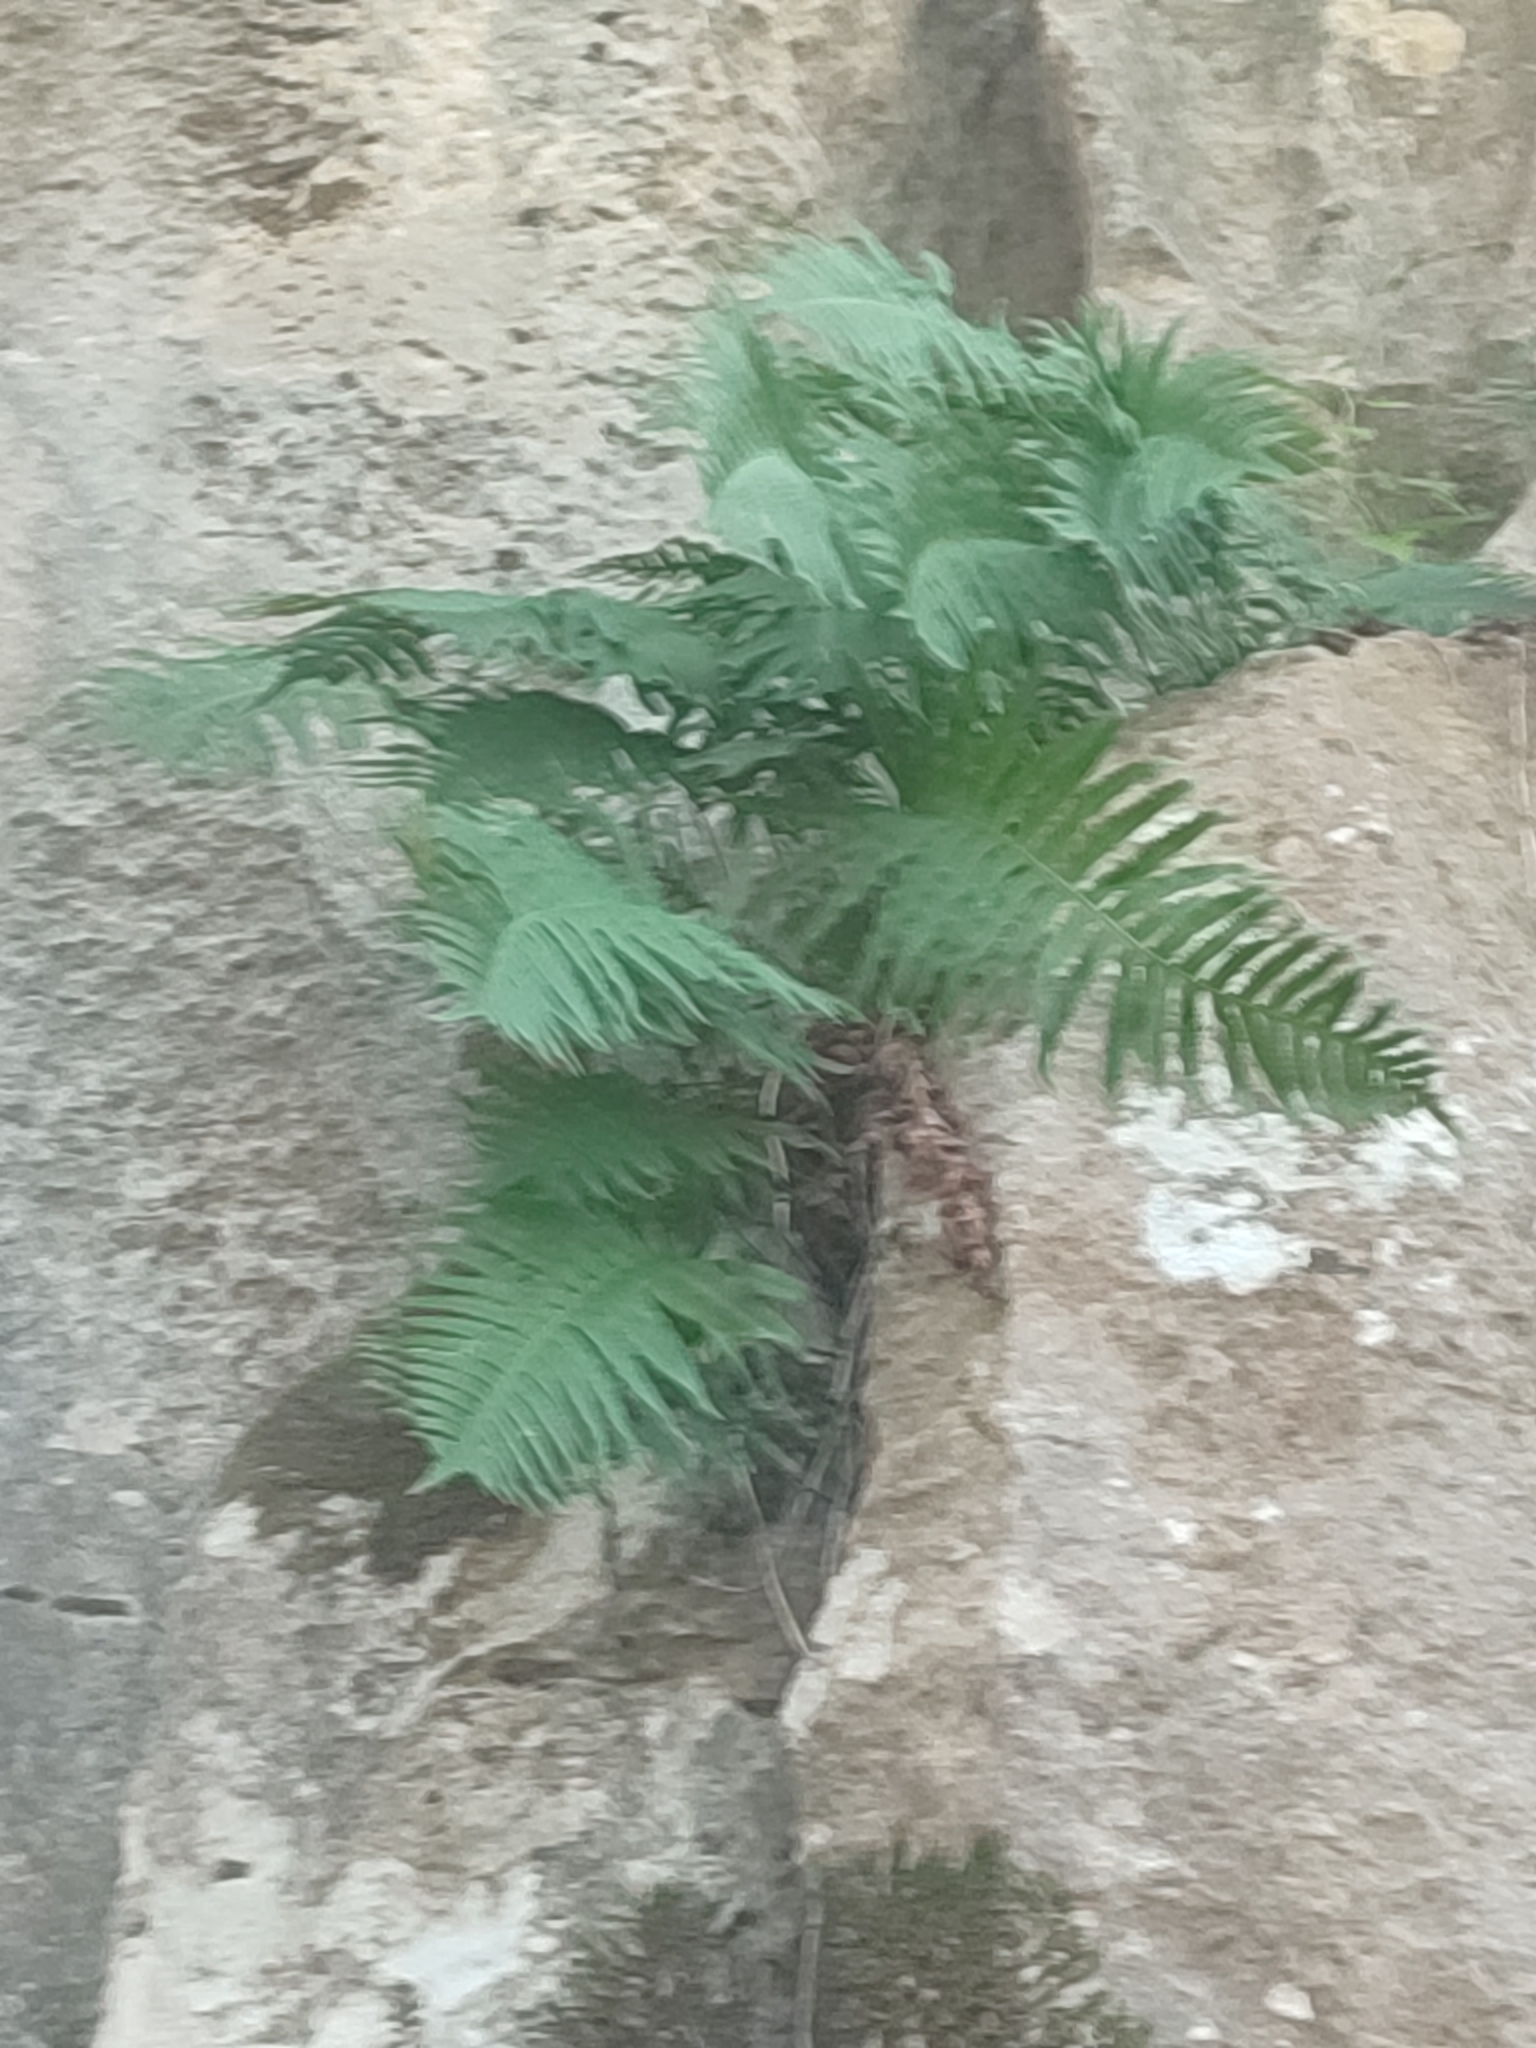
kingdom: Plantae
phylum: Tracheophyta
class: Polypodiopsida
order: Polypodiales
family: Polypodiaceae
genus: Polypodium
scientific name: Polypodium cambricum
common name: Southern polypody
